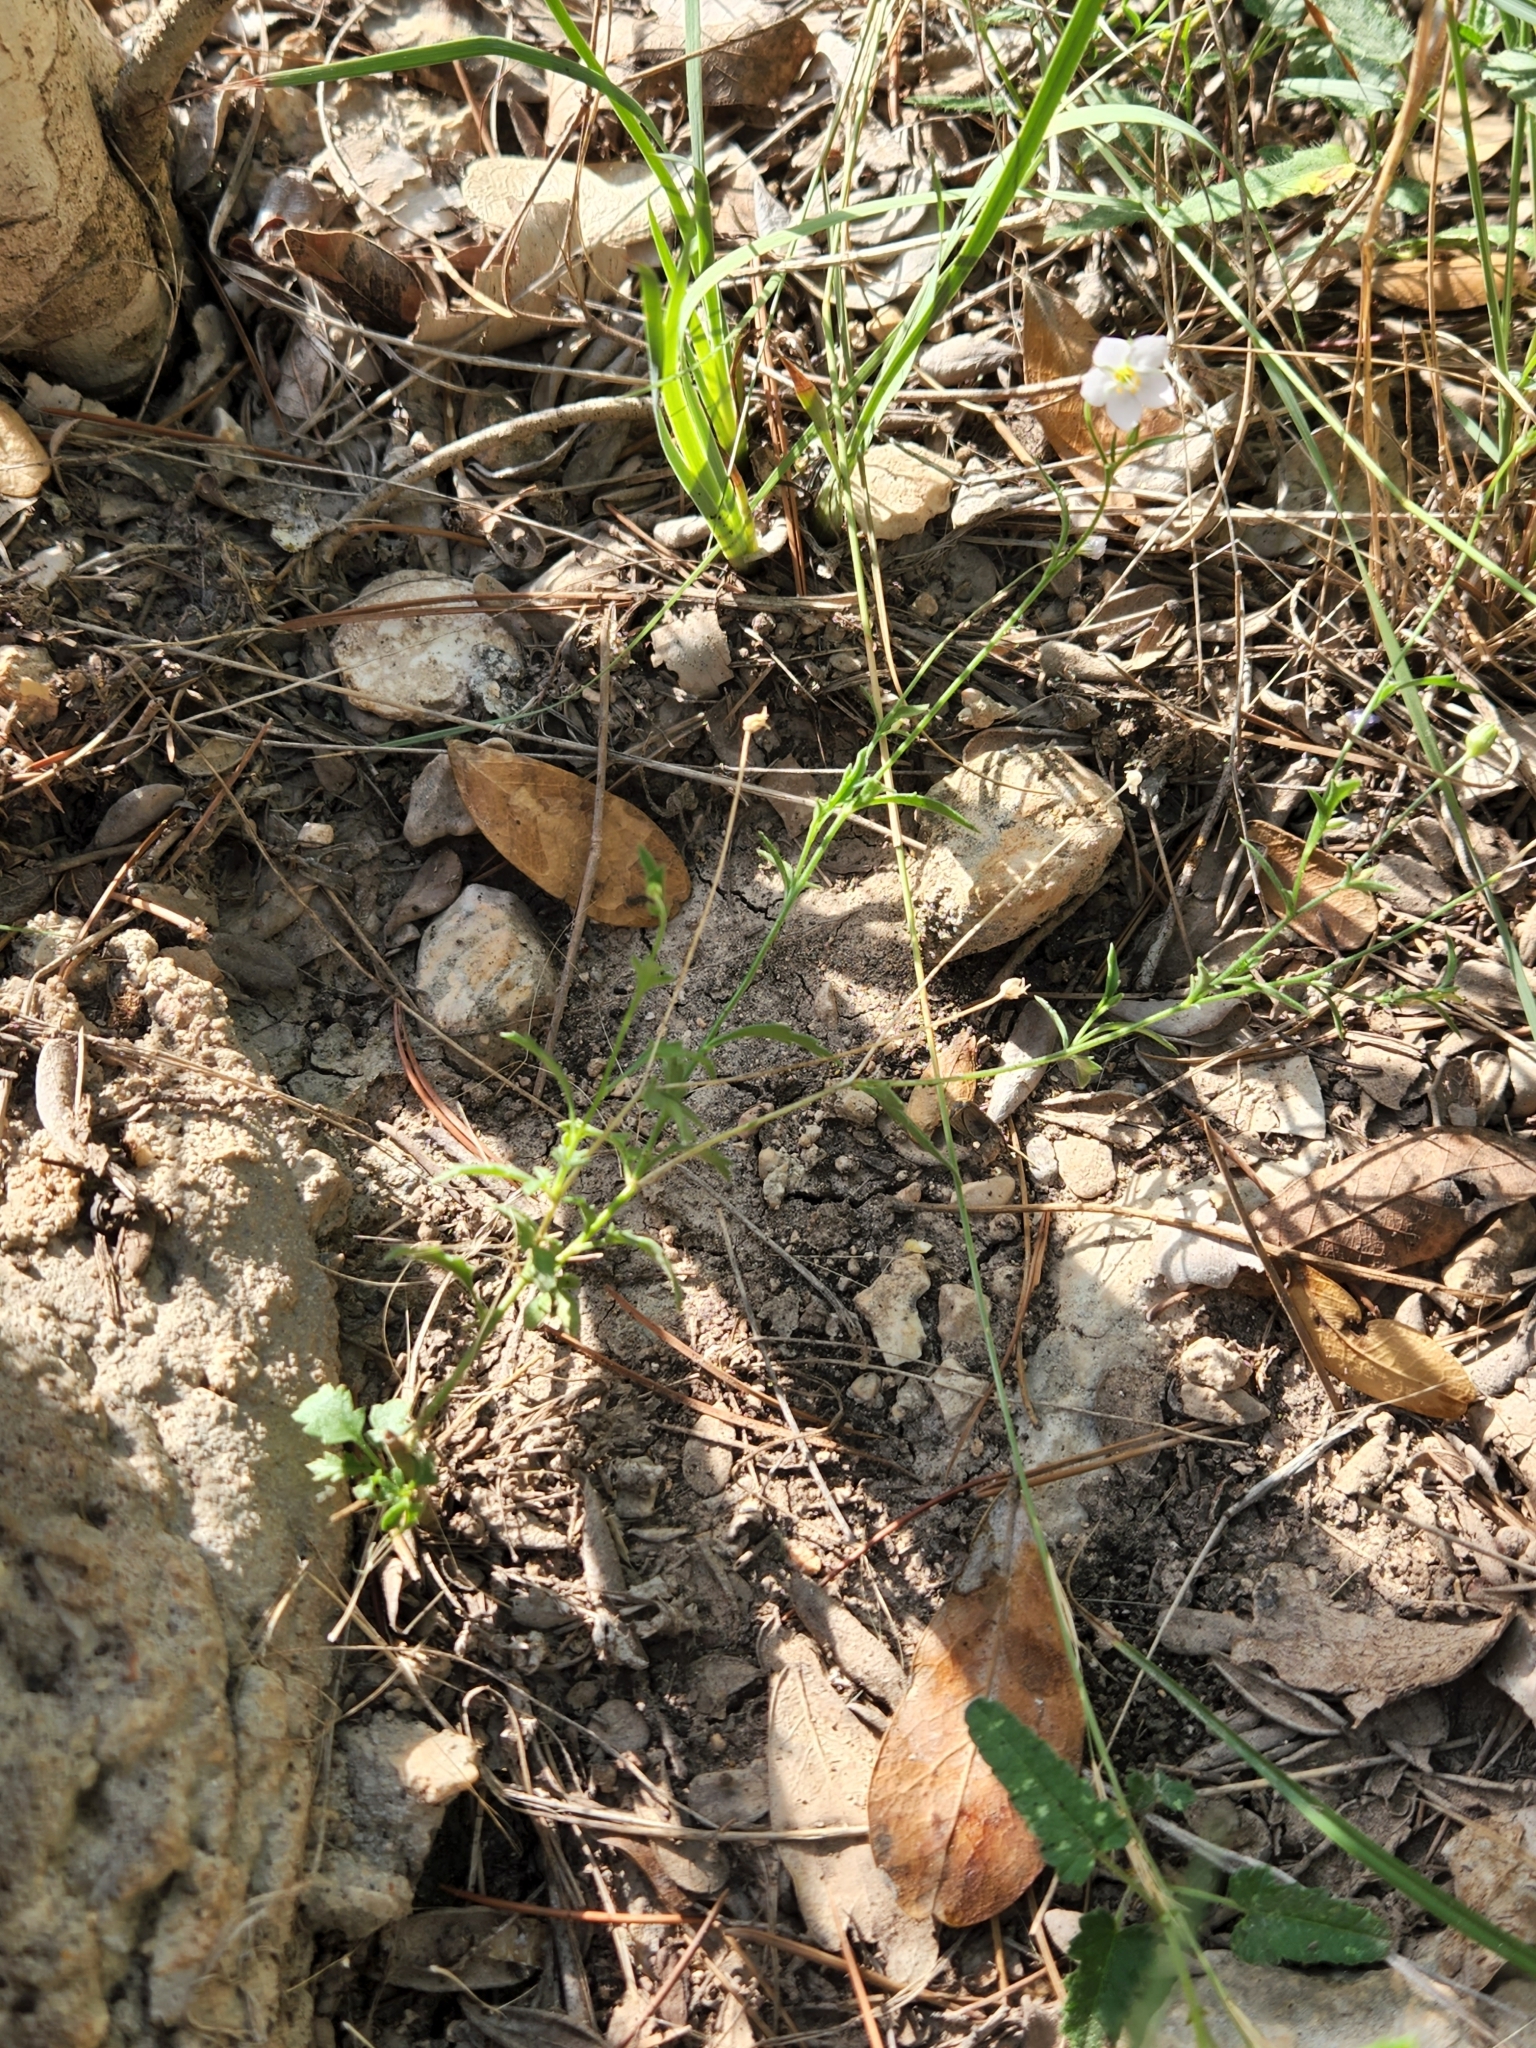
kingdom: Plantae
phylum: Tracheophyta
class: Magnoliopsida
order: Ericales
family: Polemoniaceae
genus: Giliastrum
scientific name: Giliastrum incisum
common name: Splitleaf gilia
